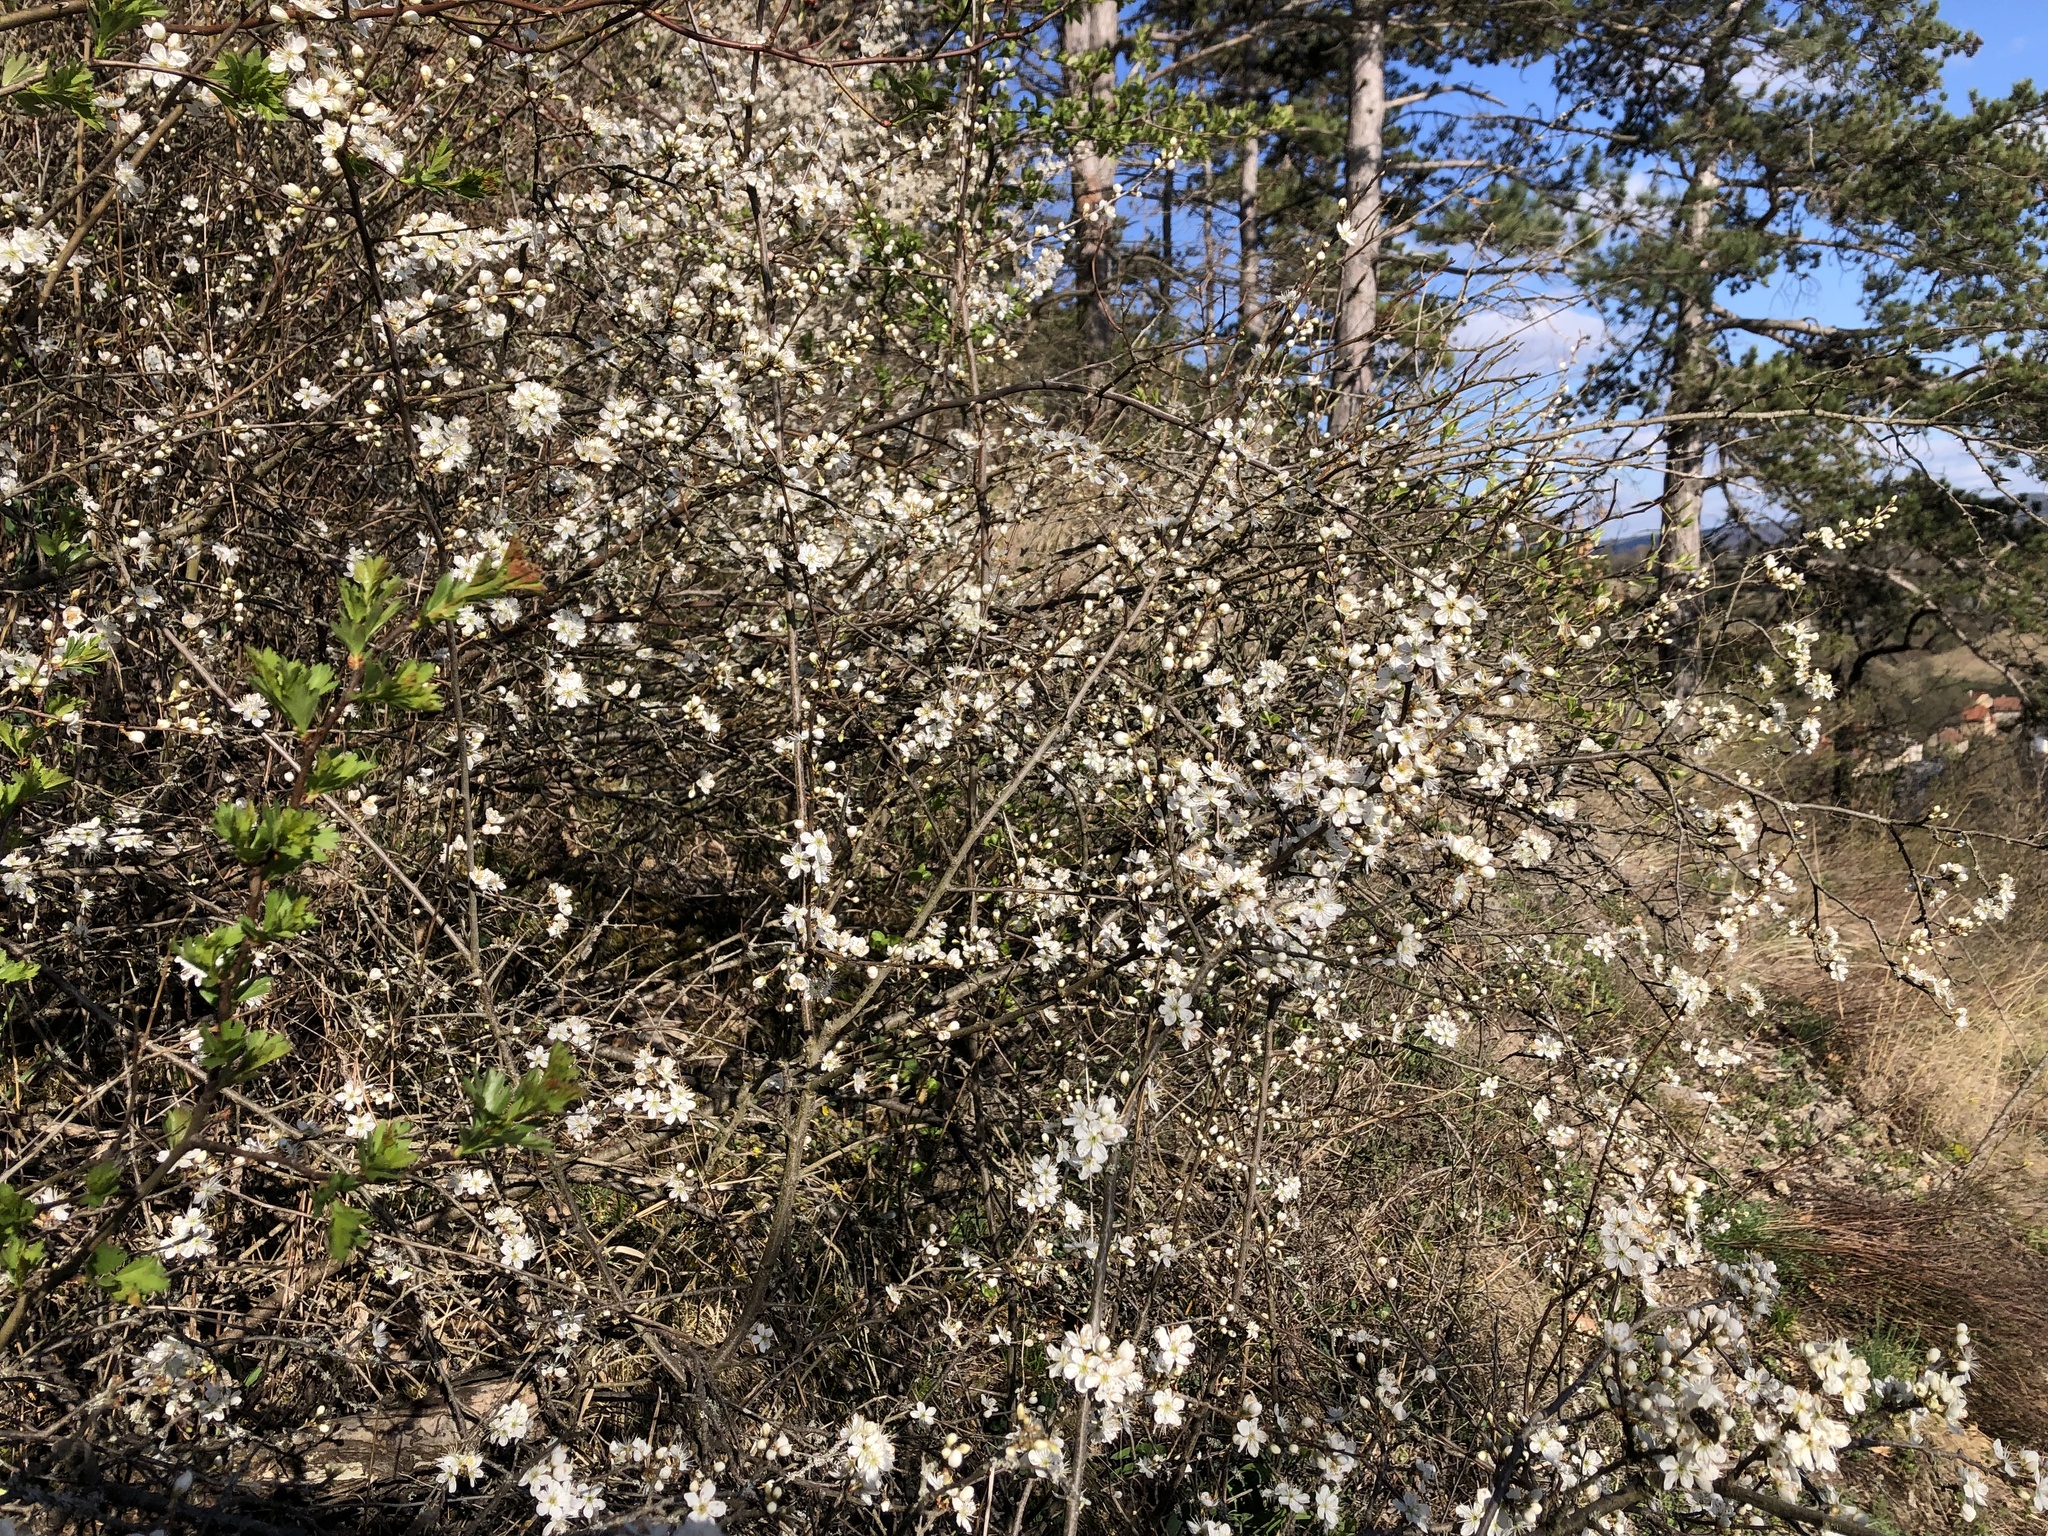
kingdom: Plantae
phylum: Tracheophyta
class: Magnoliopsida
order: Rosales
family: Rosaceae
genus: Prunus
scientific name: Prunus spinosa
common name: Blackthorn
